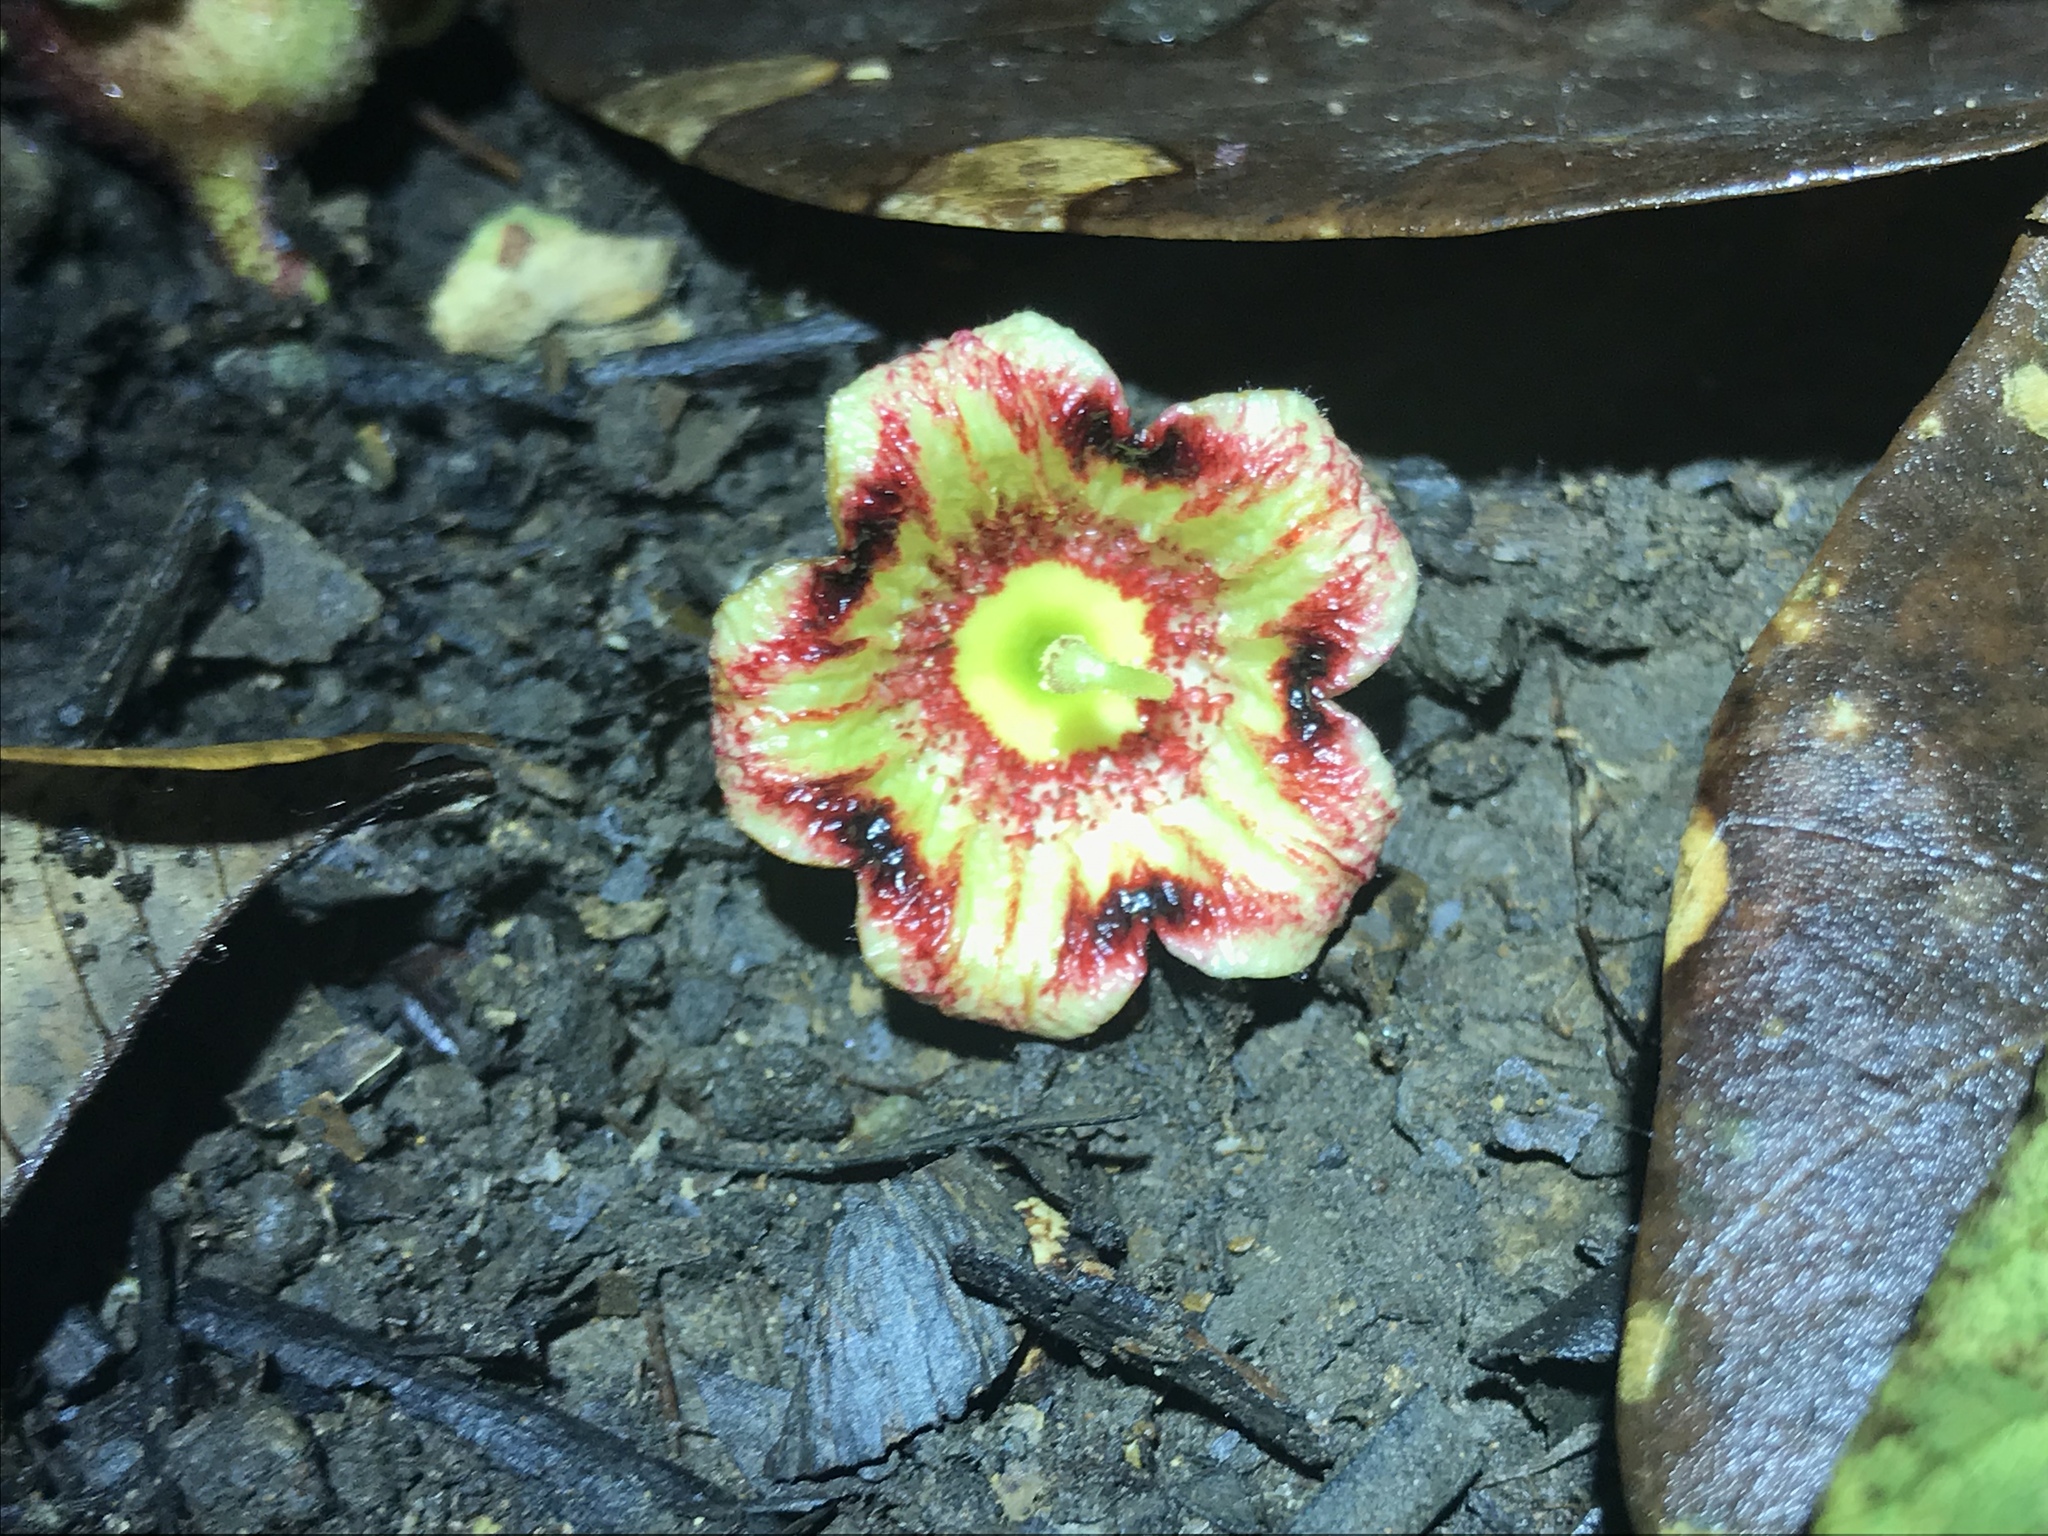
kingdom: Plantae
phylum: Tracheophyta
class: Magnoliopsida
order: Malvales
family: Malvaceae
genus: Sterculia
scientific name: Sterculia apetala
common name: Panama tree
